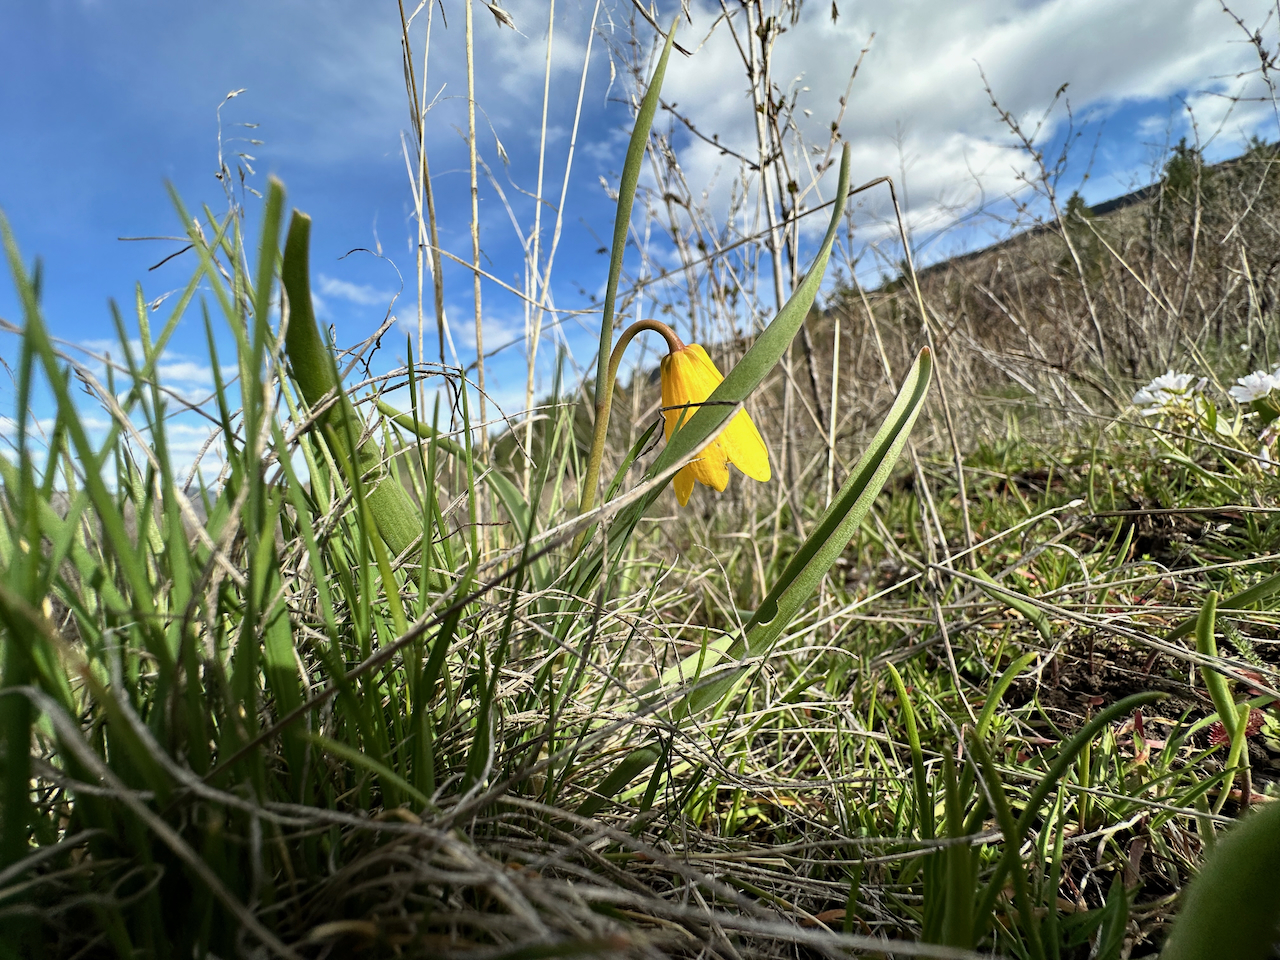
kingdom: Plantae
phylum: Tracheophyta
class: Liliopsida
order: Liliales
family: Liliaceae
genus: Fritillaria
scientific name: Fritillaria pudica
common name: Yellow fritillary
